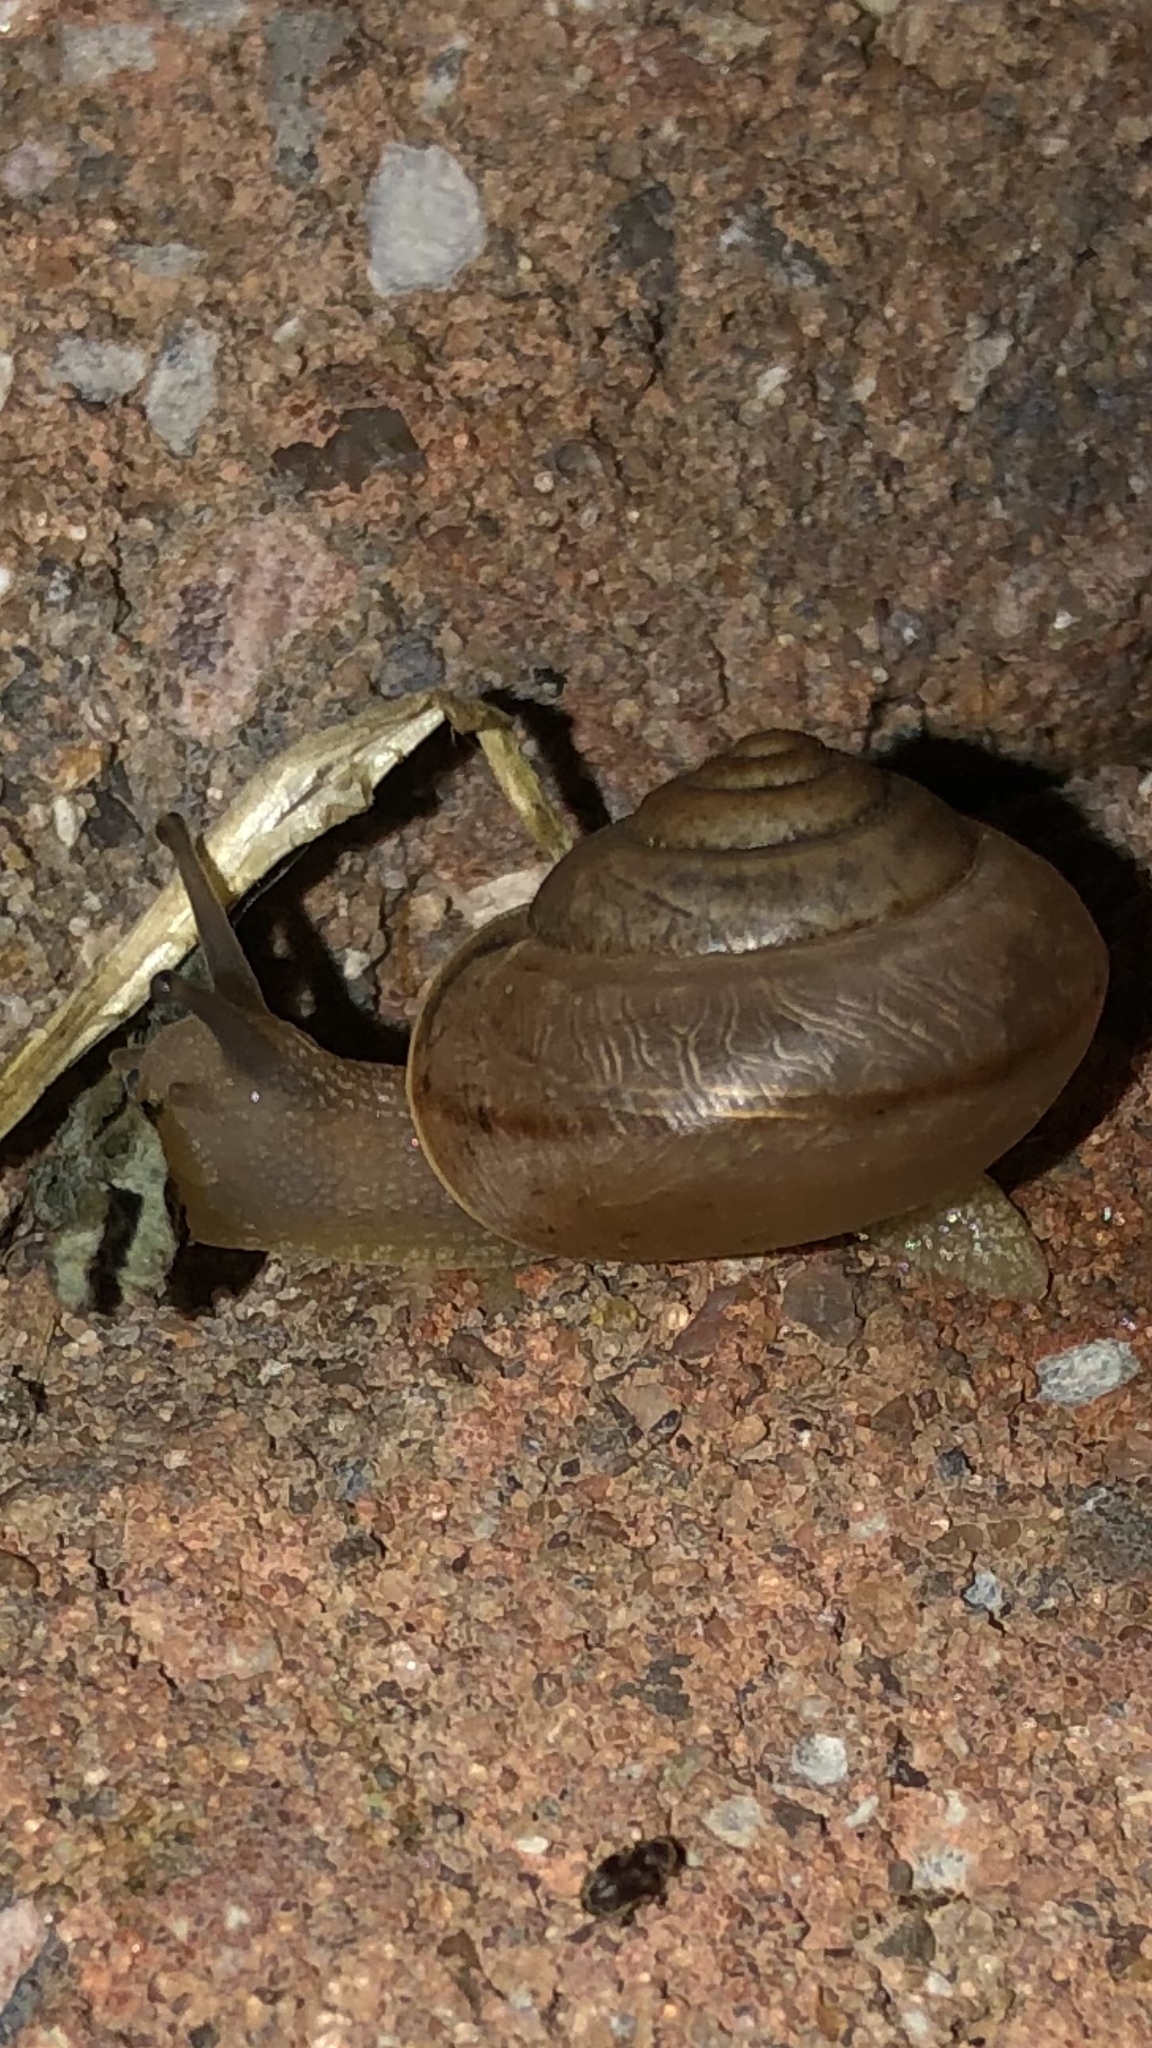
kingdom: Animalia
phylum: Mollusca
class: Gastropoda
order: Stylommatophora
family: Camaenidae
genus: Bradybaena
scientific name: Bradybaena similaris
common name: Asian trampsnail
